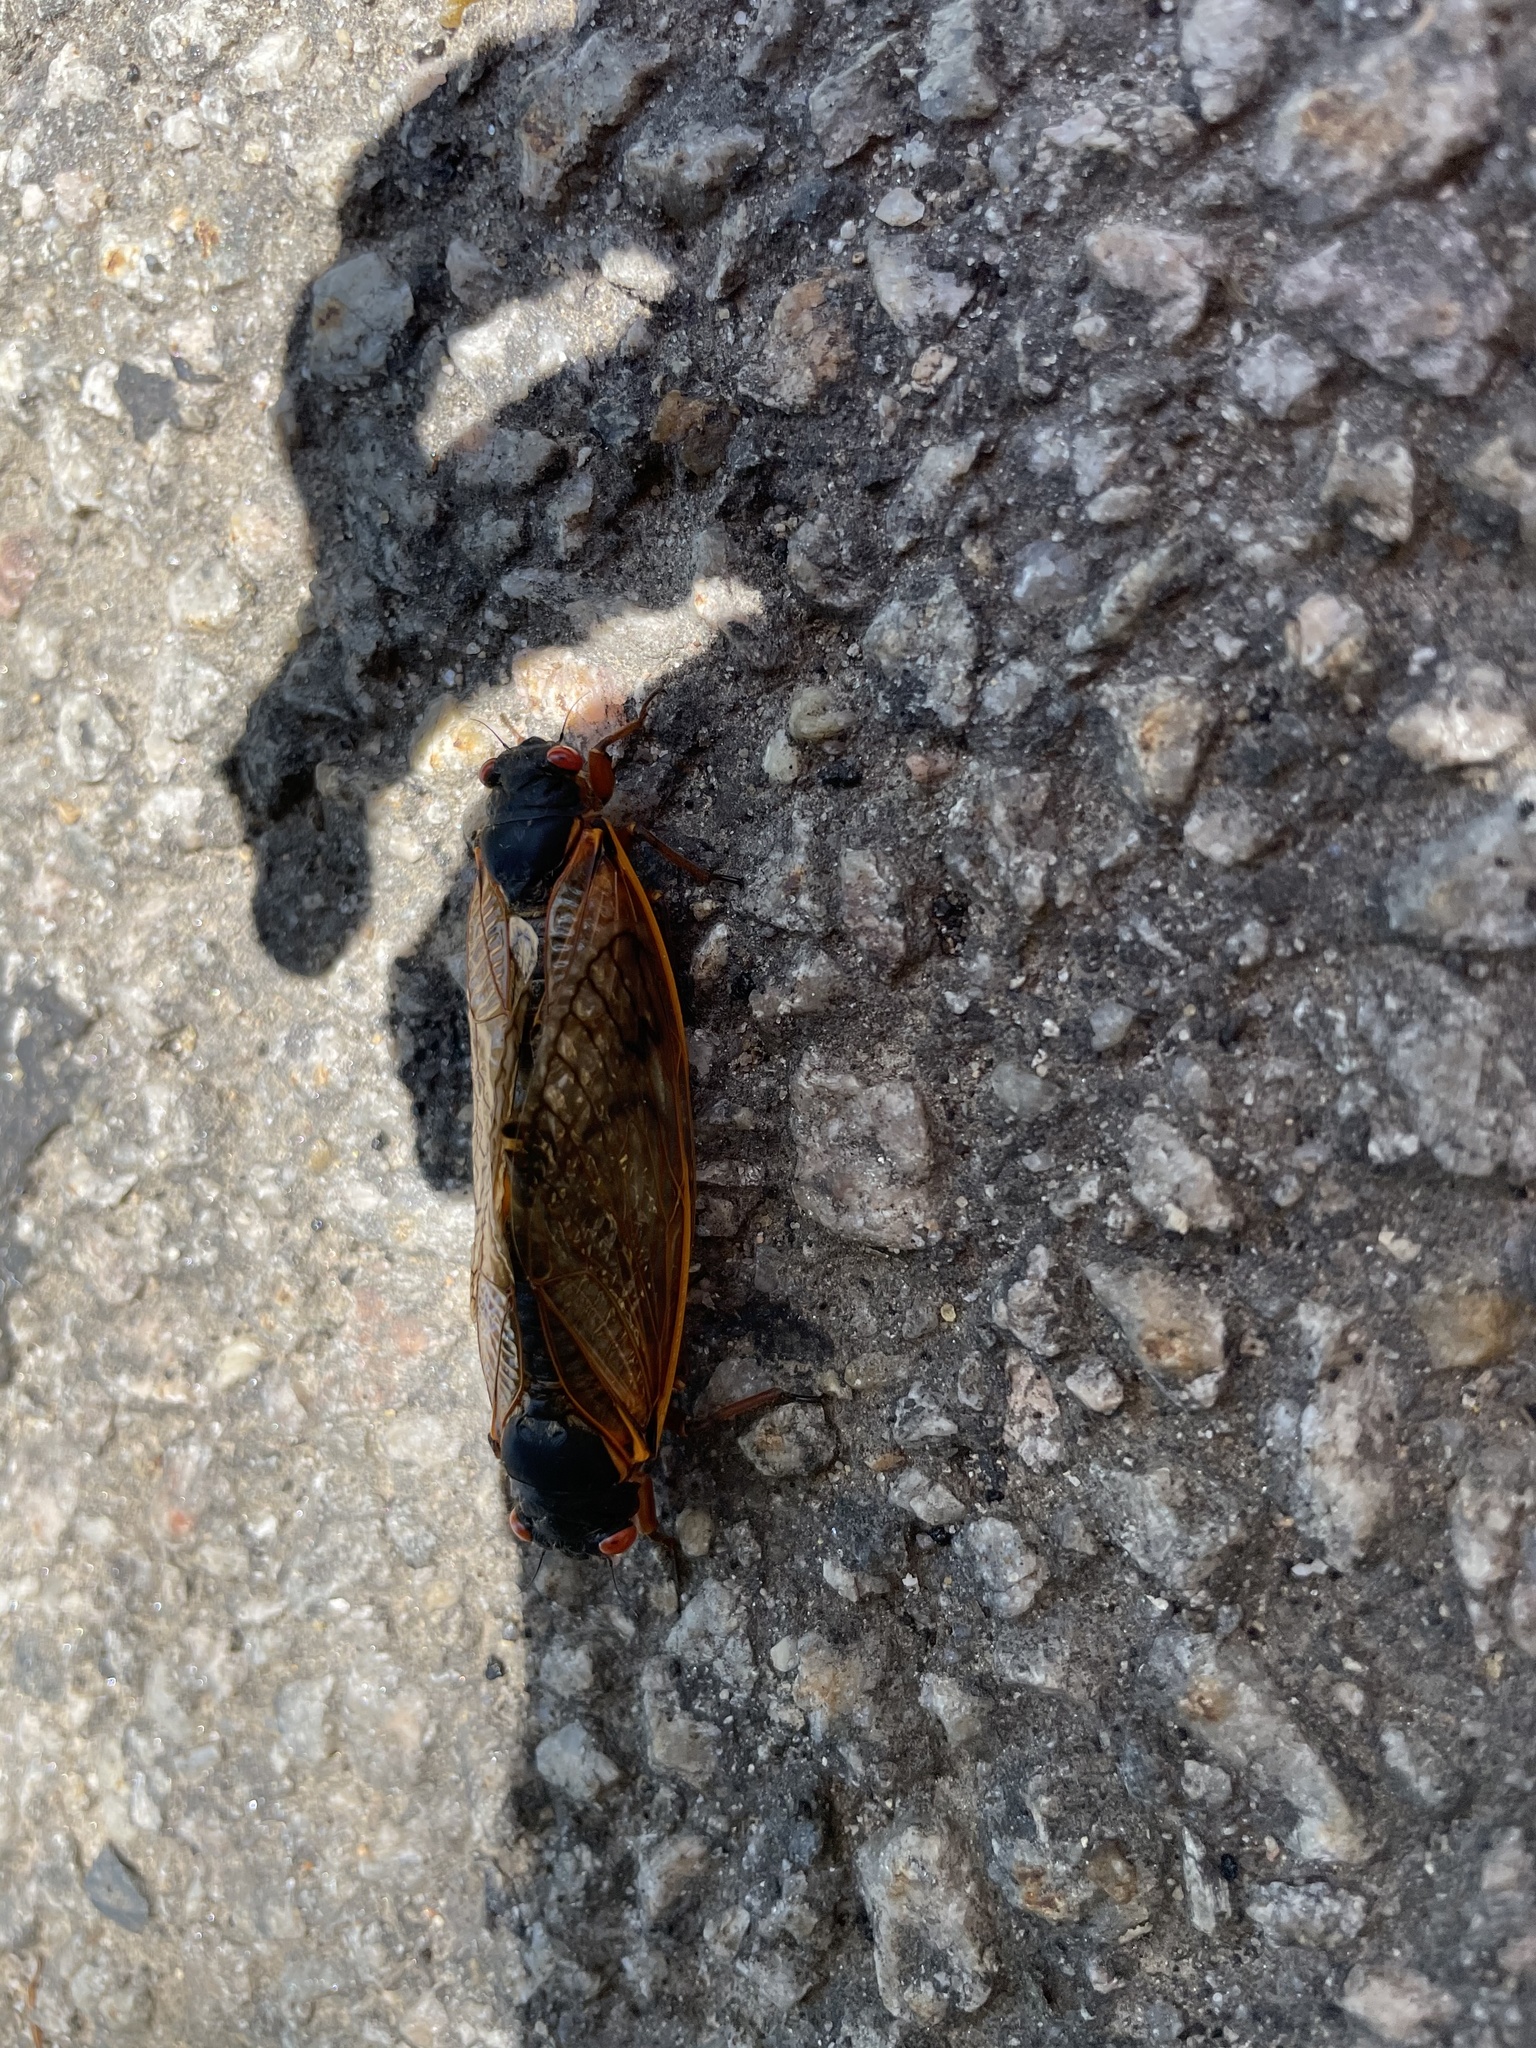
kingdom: Animalia
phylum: Arthropoda
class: Insecta
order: Hemiptera
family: Cicadidae
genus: Magicicada
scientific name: Magicicada septendecim
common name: Periodical cicada
